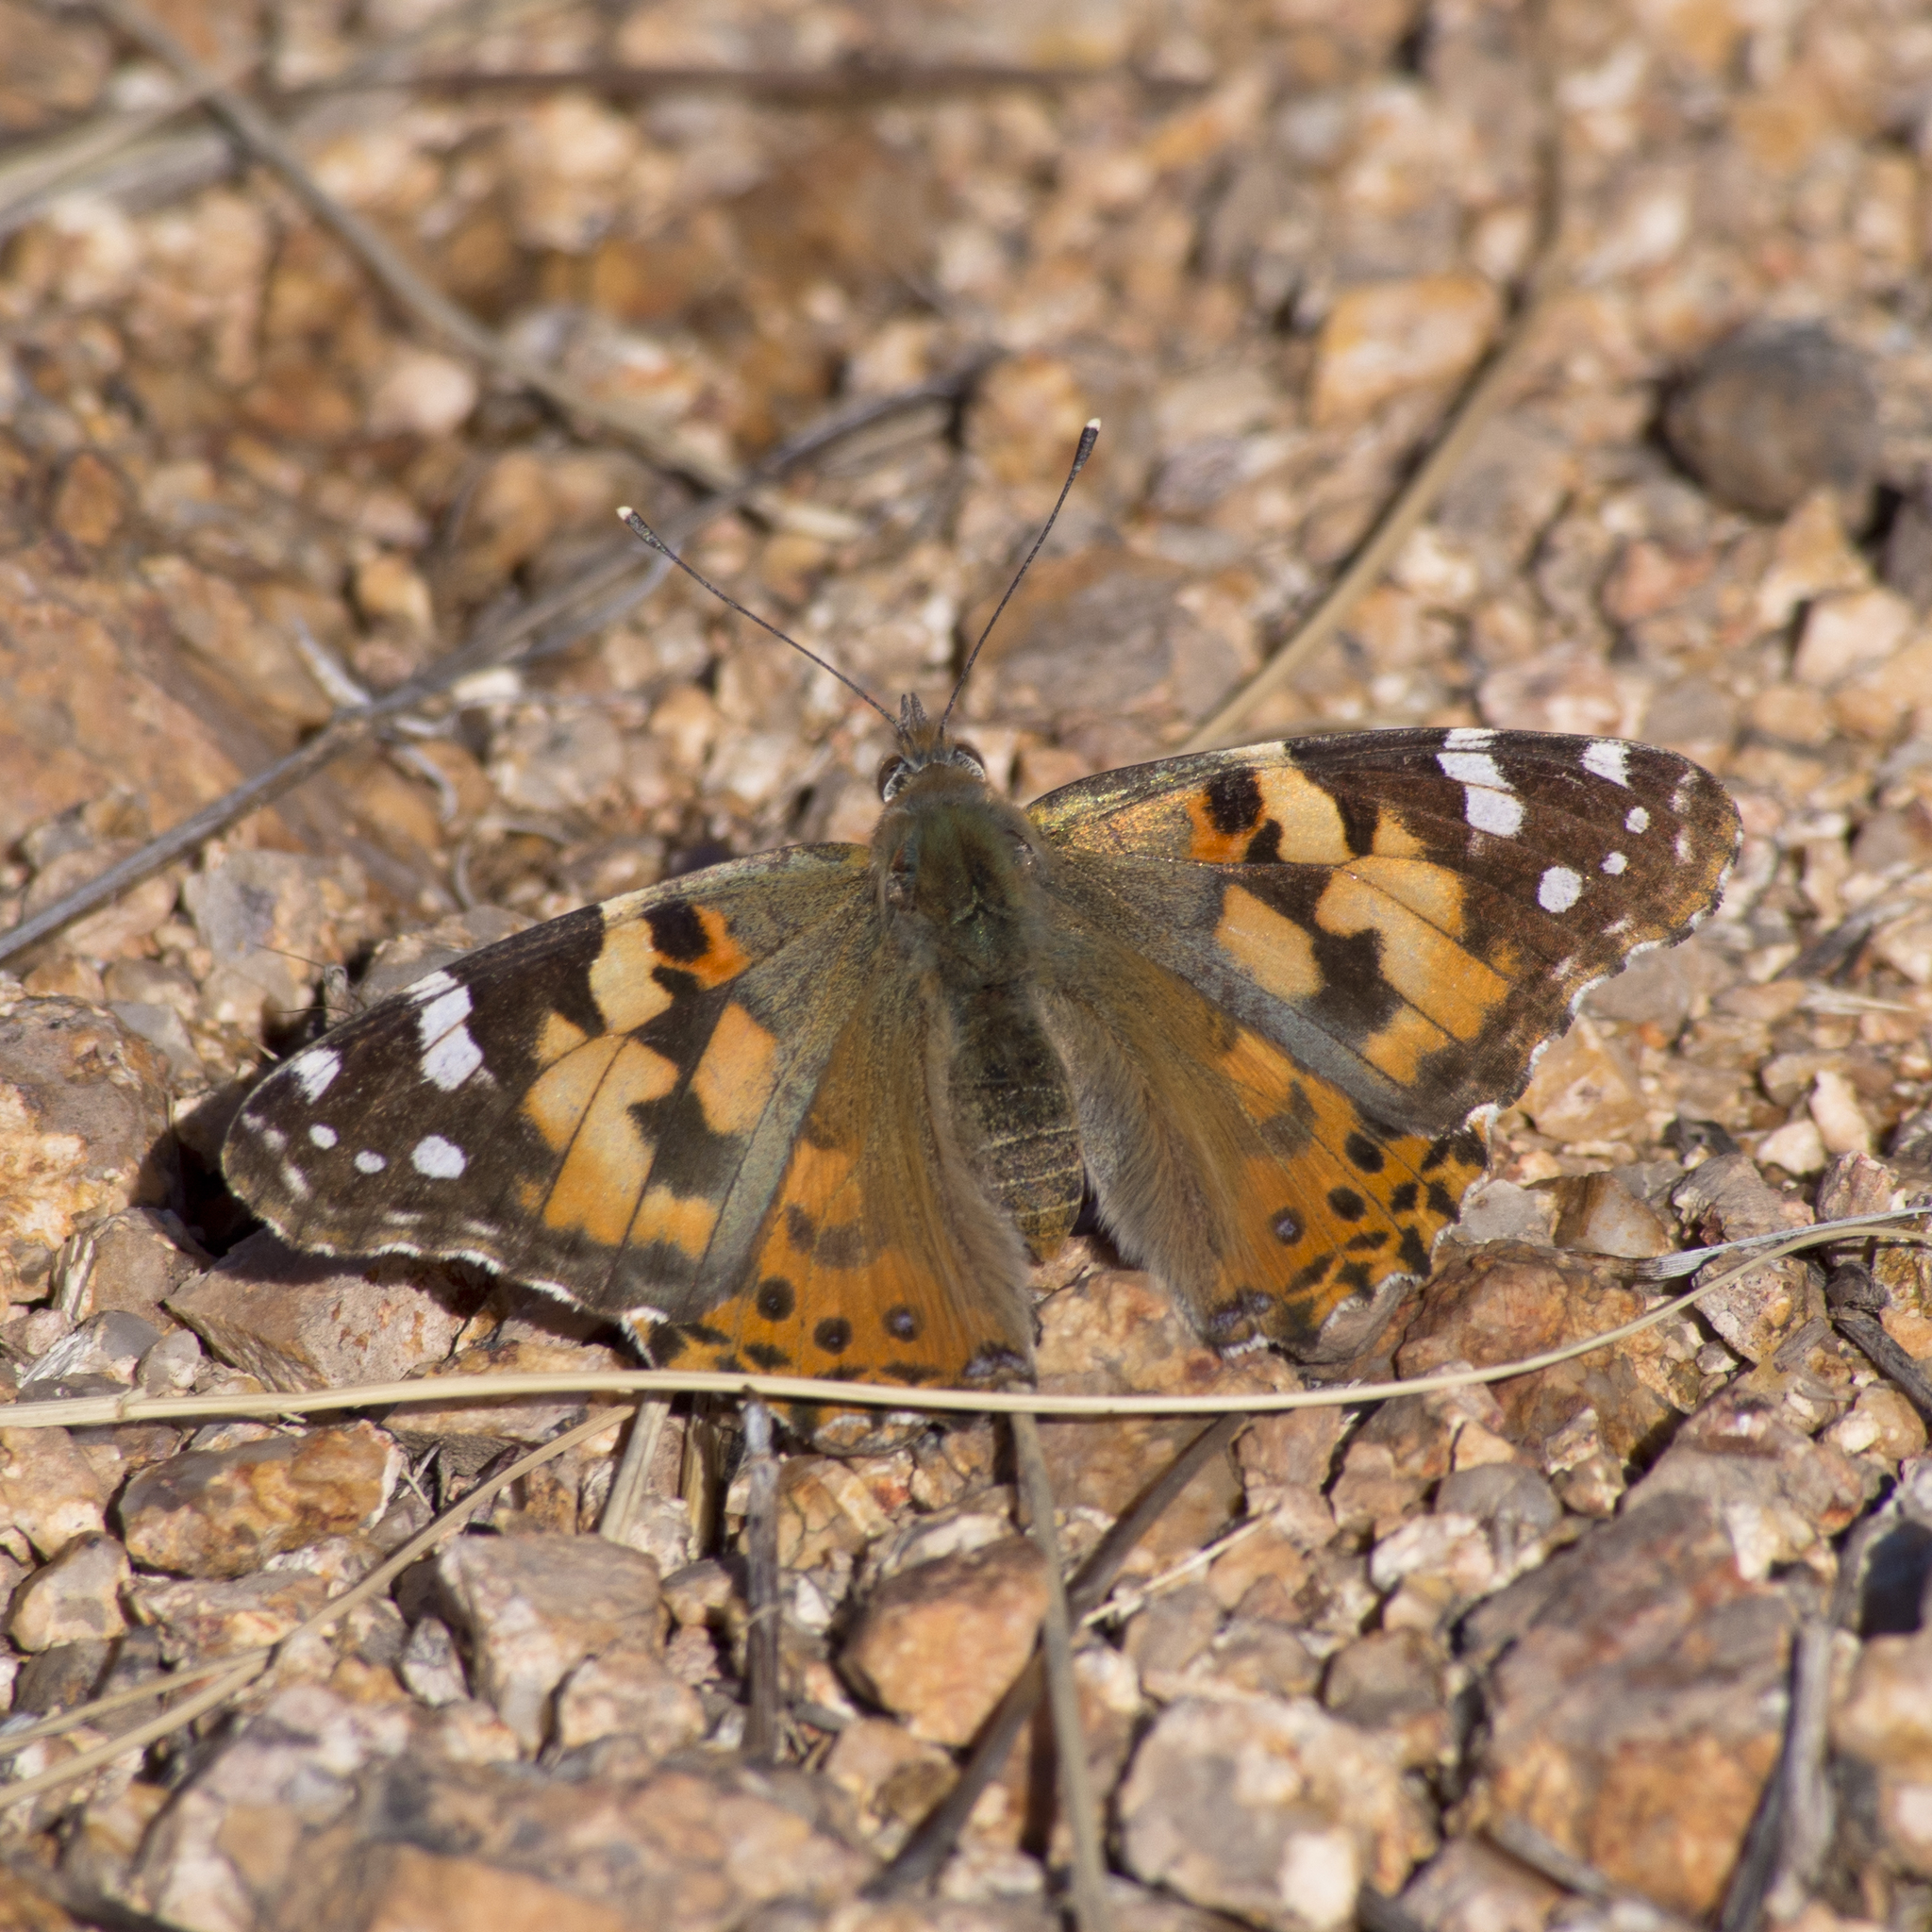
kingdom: Animalia
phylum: Arthropoda
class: Insecta
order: Lepidoptera
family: Nymphalidae
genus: Vanessa
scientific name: Vanessa cardui
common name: Painted lady
